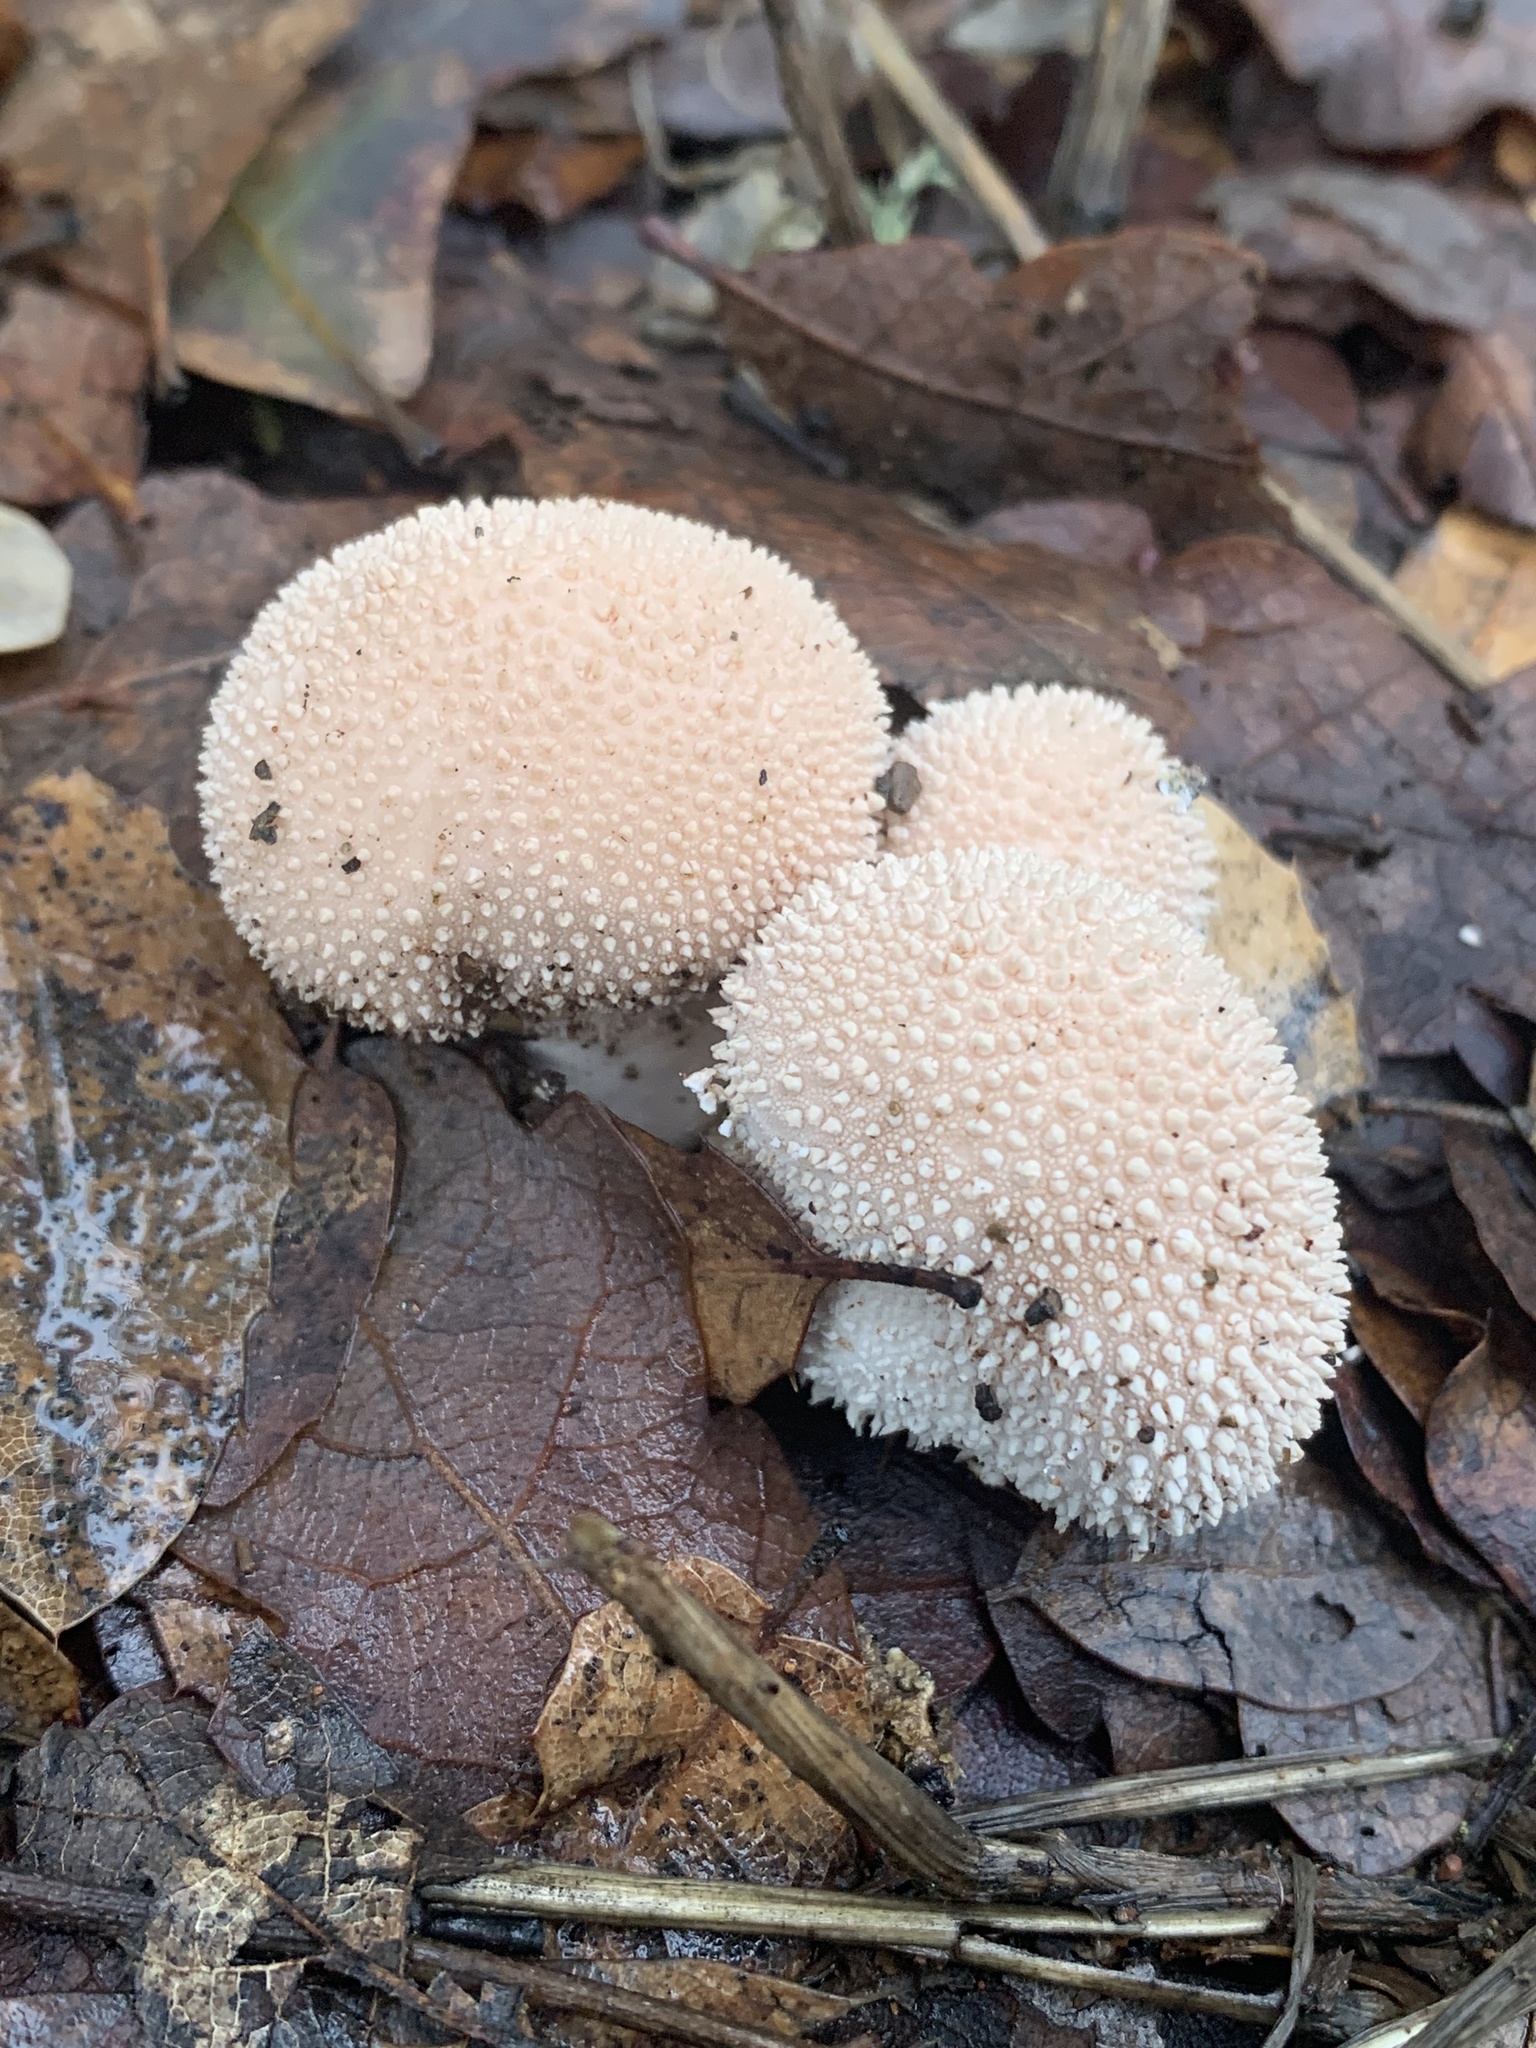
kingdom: Fungi
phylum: Basidiomycota
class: Agaricomycetes
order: Agaricales
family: Lycoperdaceae
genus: Lycoperdon
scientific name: Lycoperdon perlatum
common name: Common puffball
